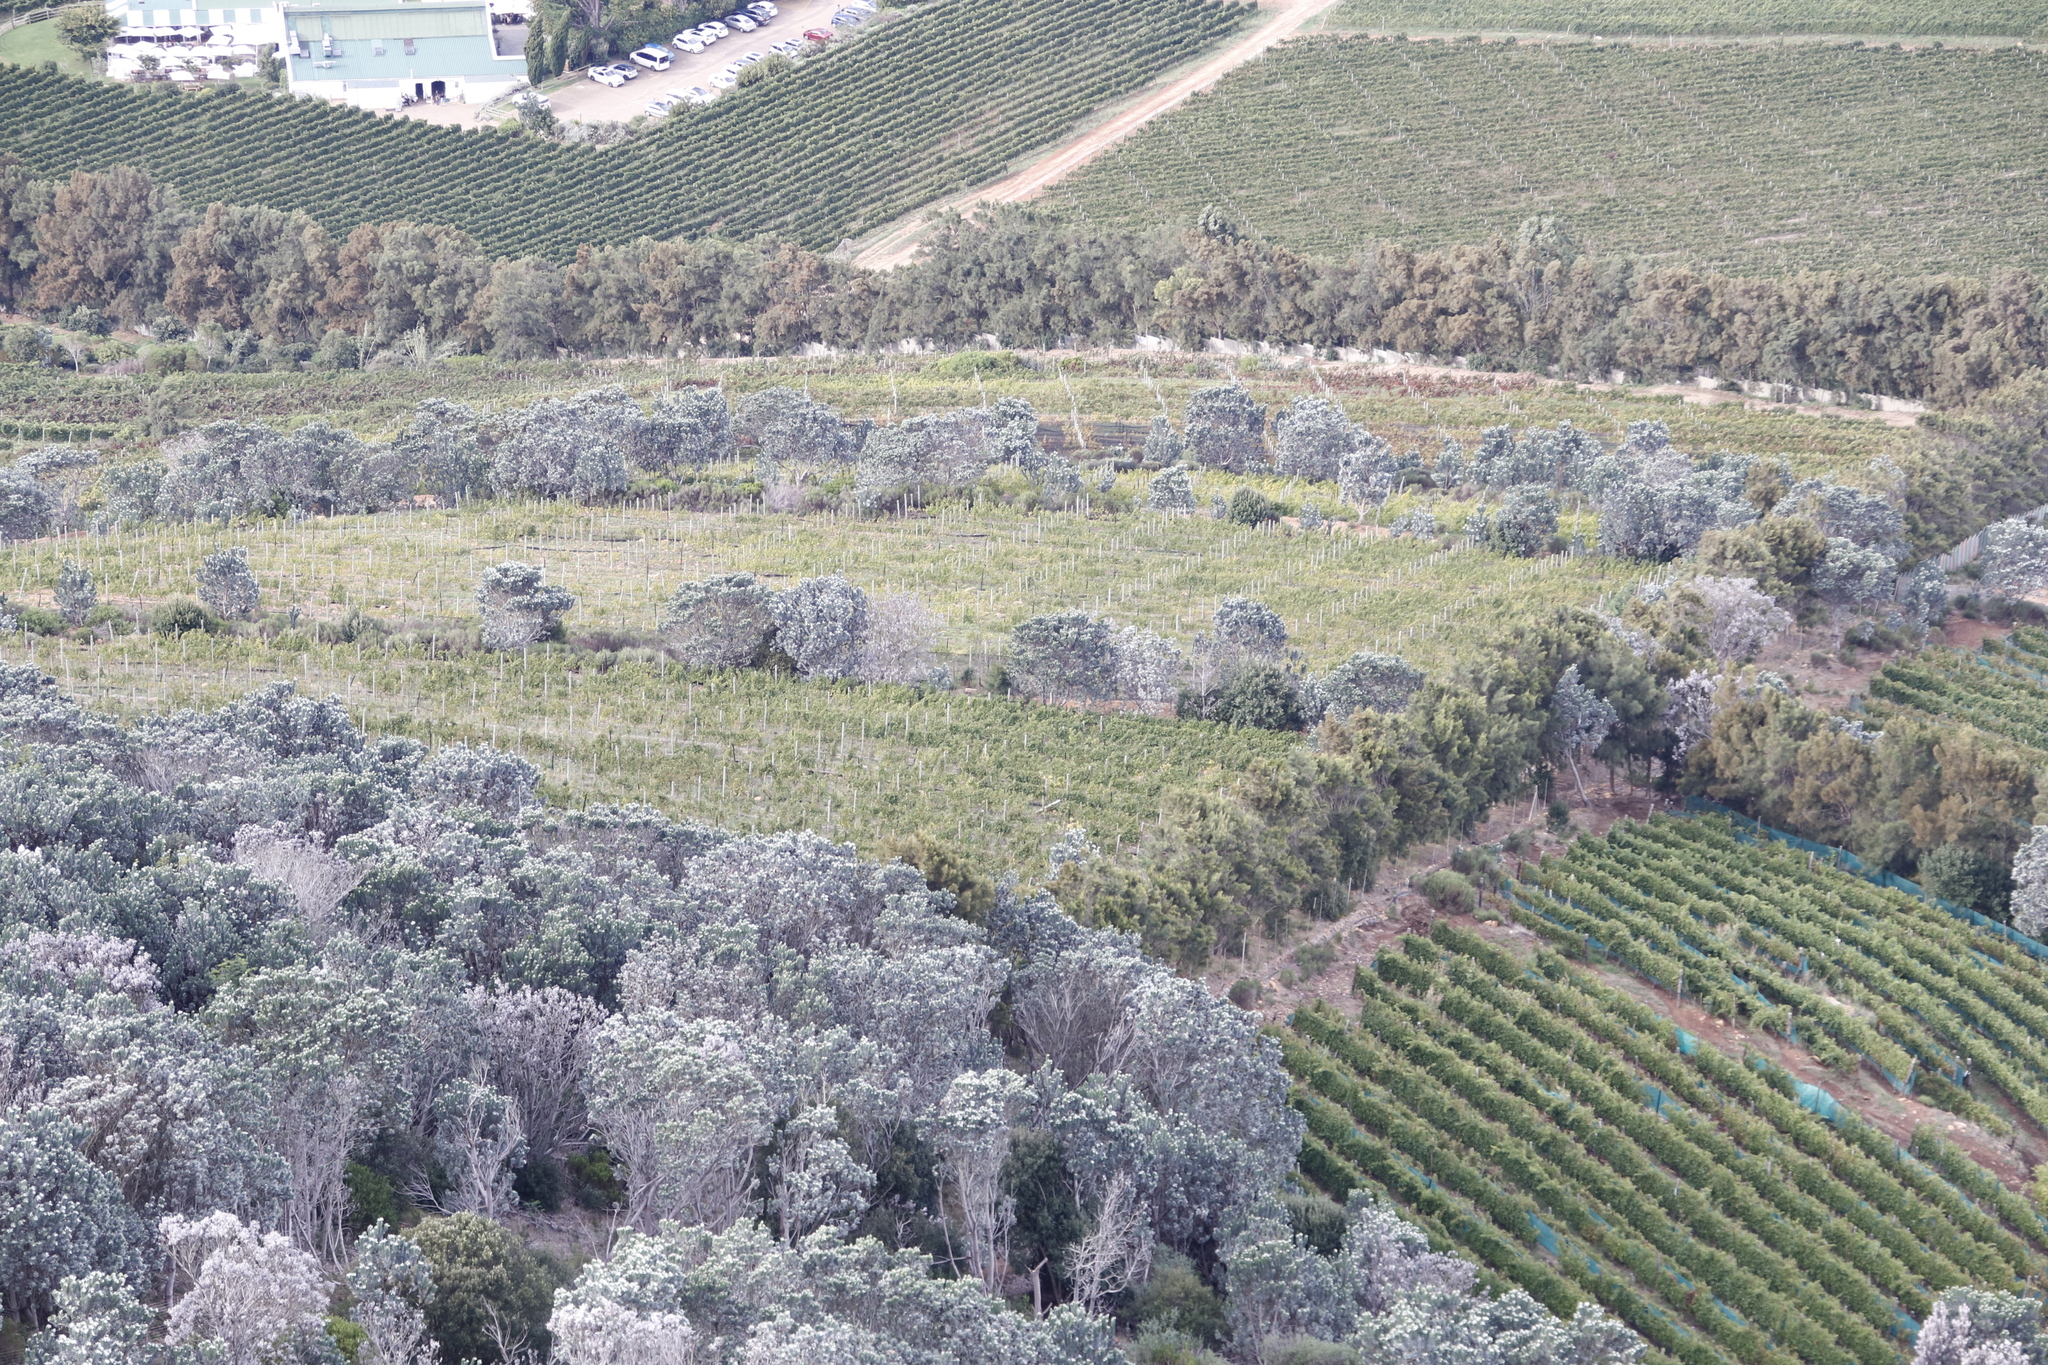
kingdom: Plantae
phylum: Tracheophyta
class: Magnoliopsida
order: Proteales
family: Proteaceae
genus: Leucadendron
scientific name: Leucadendron argenteum
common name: Cape silver tree
